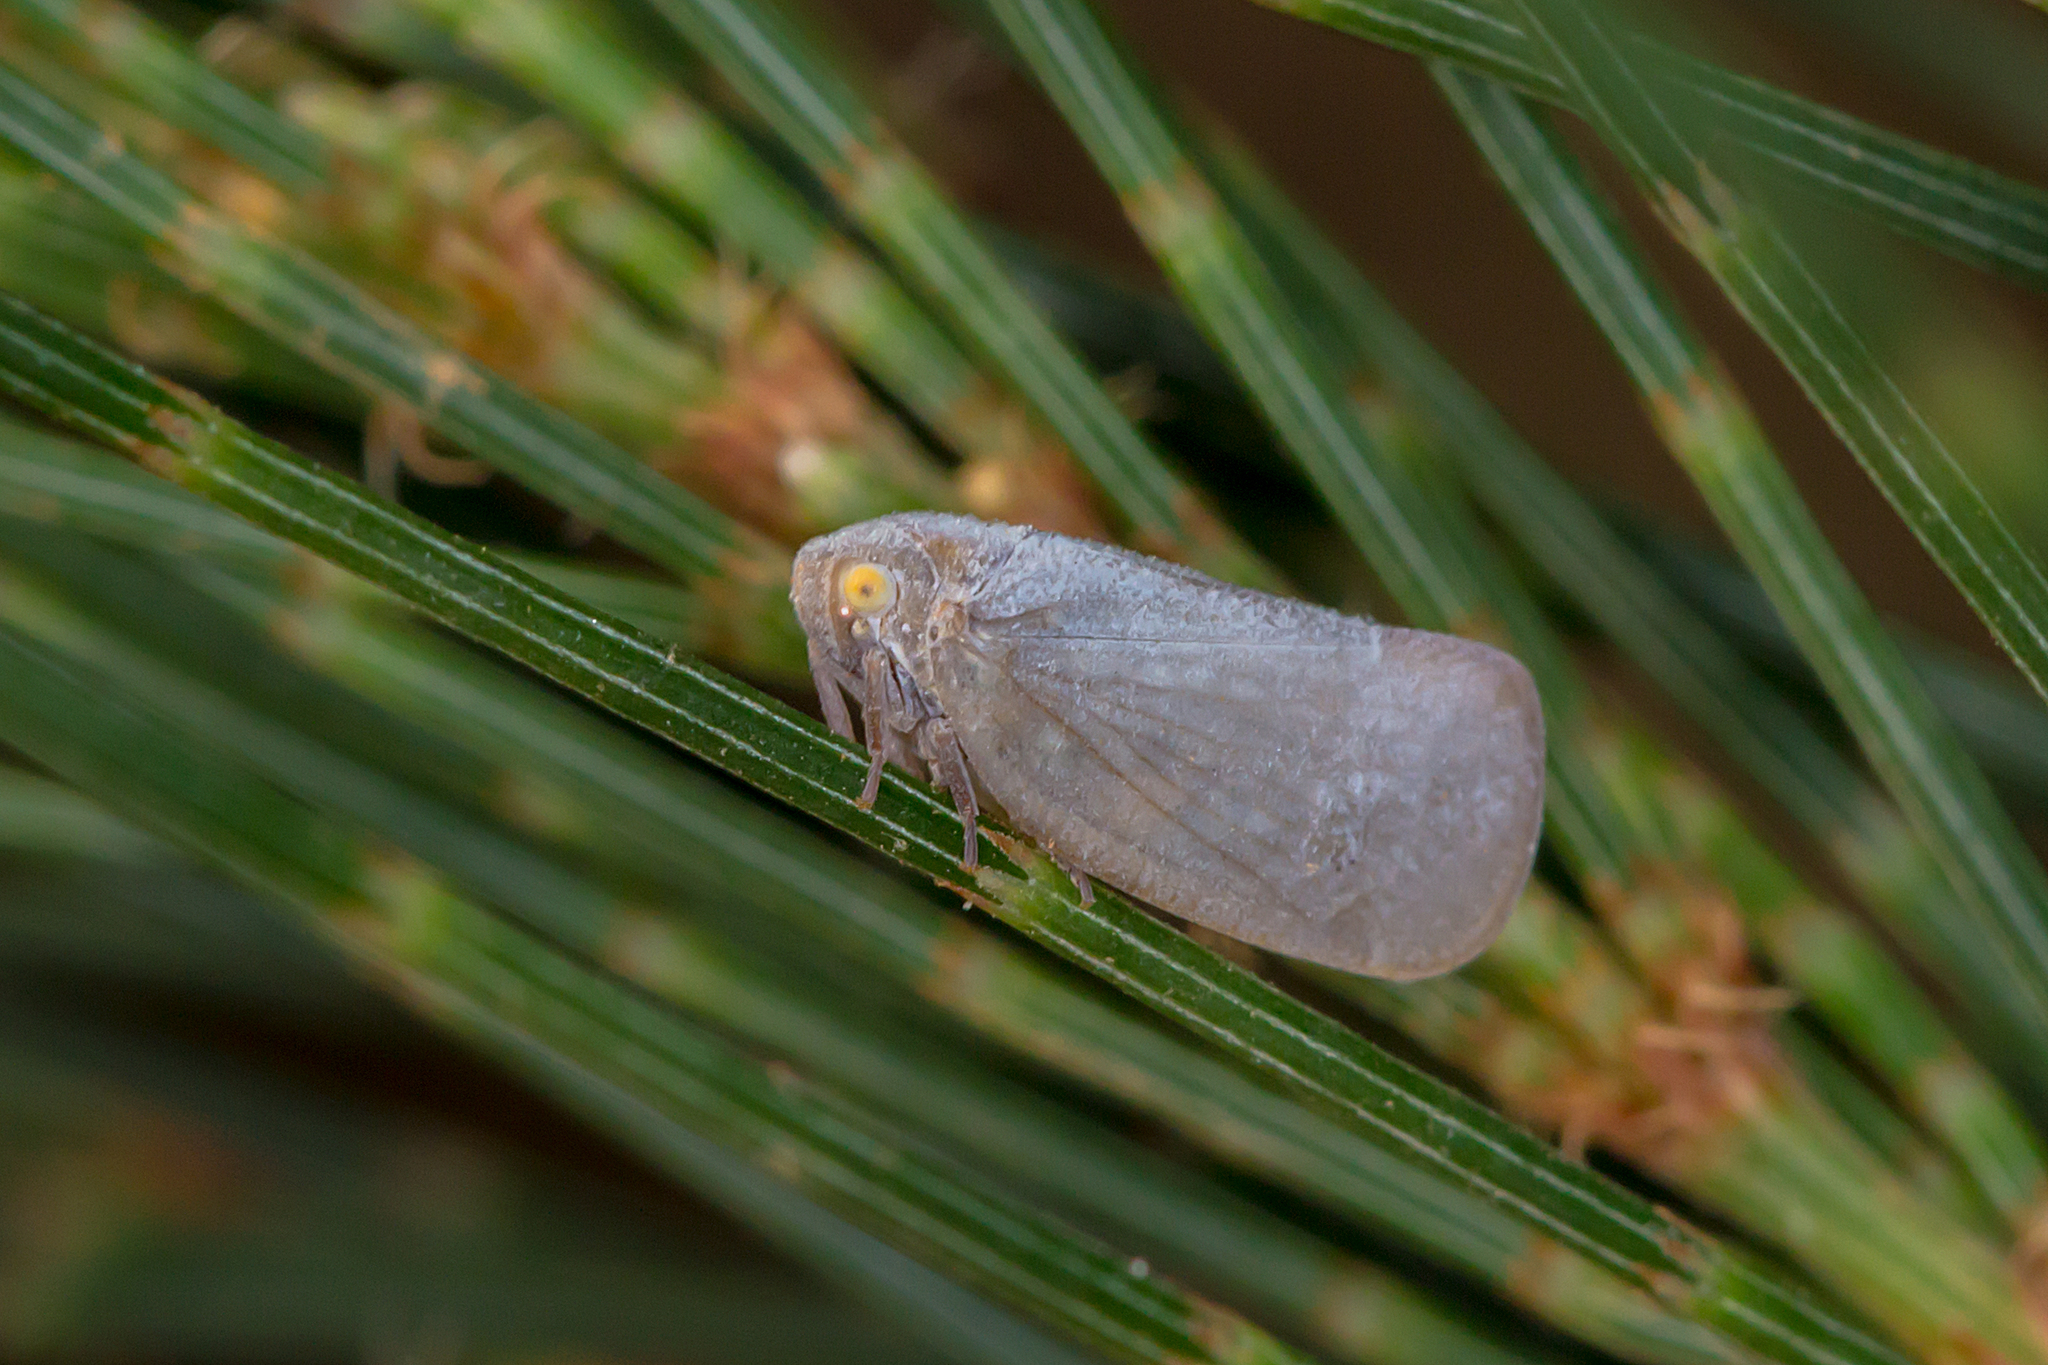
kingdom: Animalia
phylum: Arthropoda
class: Insecta
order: Hemiptera
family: Flatidae
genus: Anzora
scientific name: Anzora unicolor
